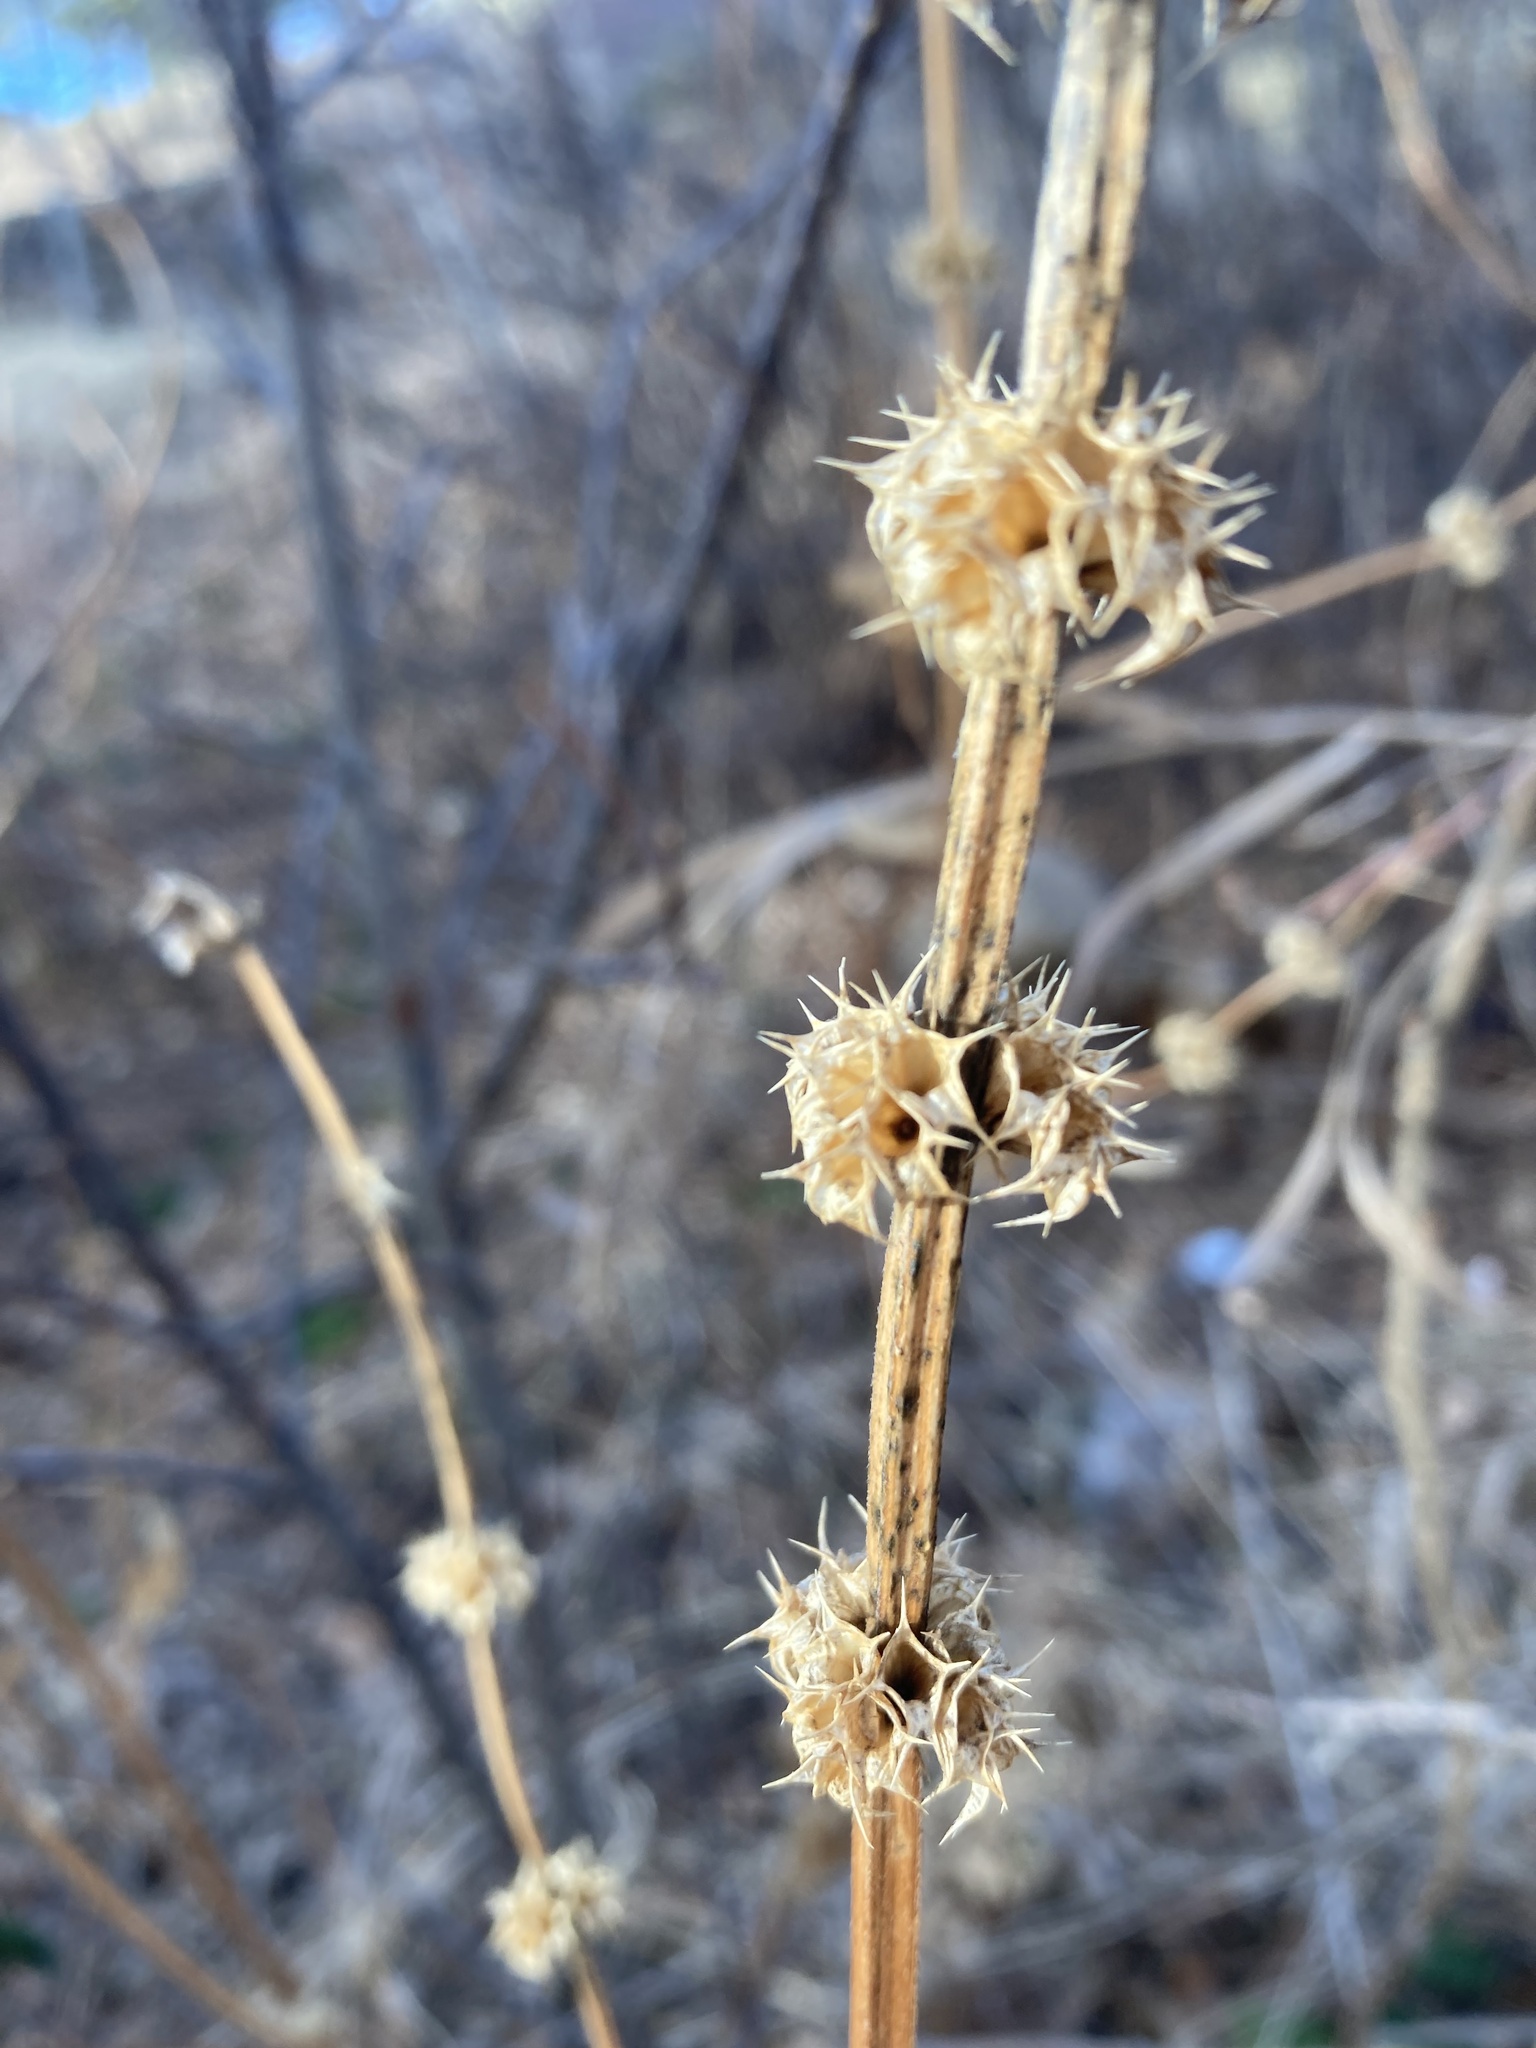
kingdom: Plantae
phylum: Tracheophyta
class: Magnoliopsida
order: Lamiales
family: Lamiaceae
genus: Leonurus
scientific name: Leonurus cardiaca
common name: Motherwort
